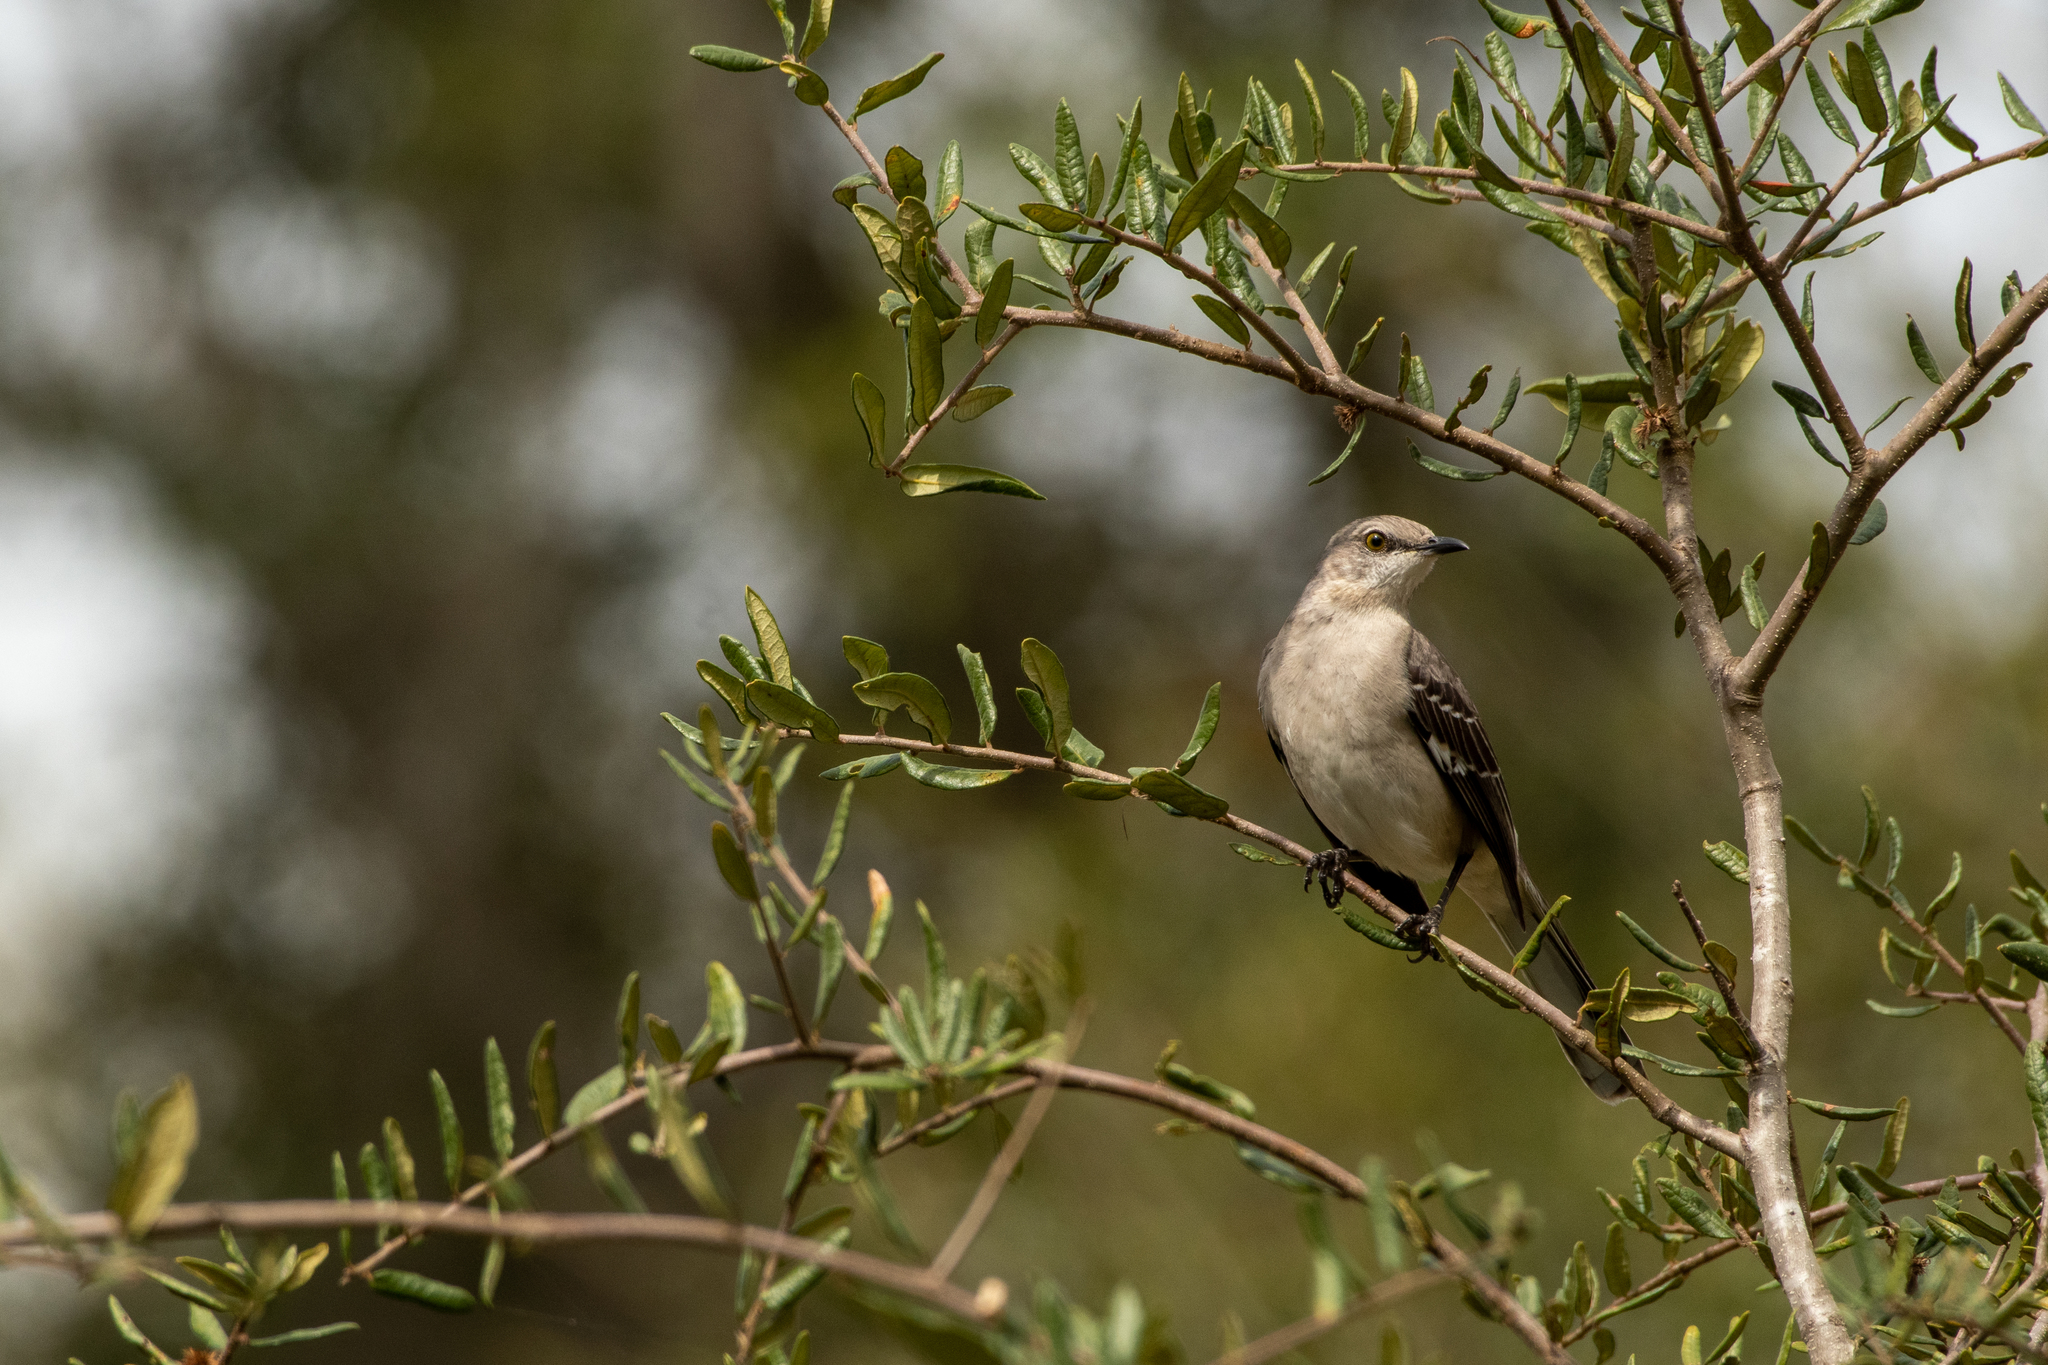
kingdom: Animalia
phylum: Chordata
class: Aves
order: Passeriformes
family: Mimidae
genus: Mimus
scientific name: Mimus polyglottos
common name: Northern mockingbird
